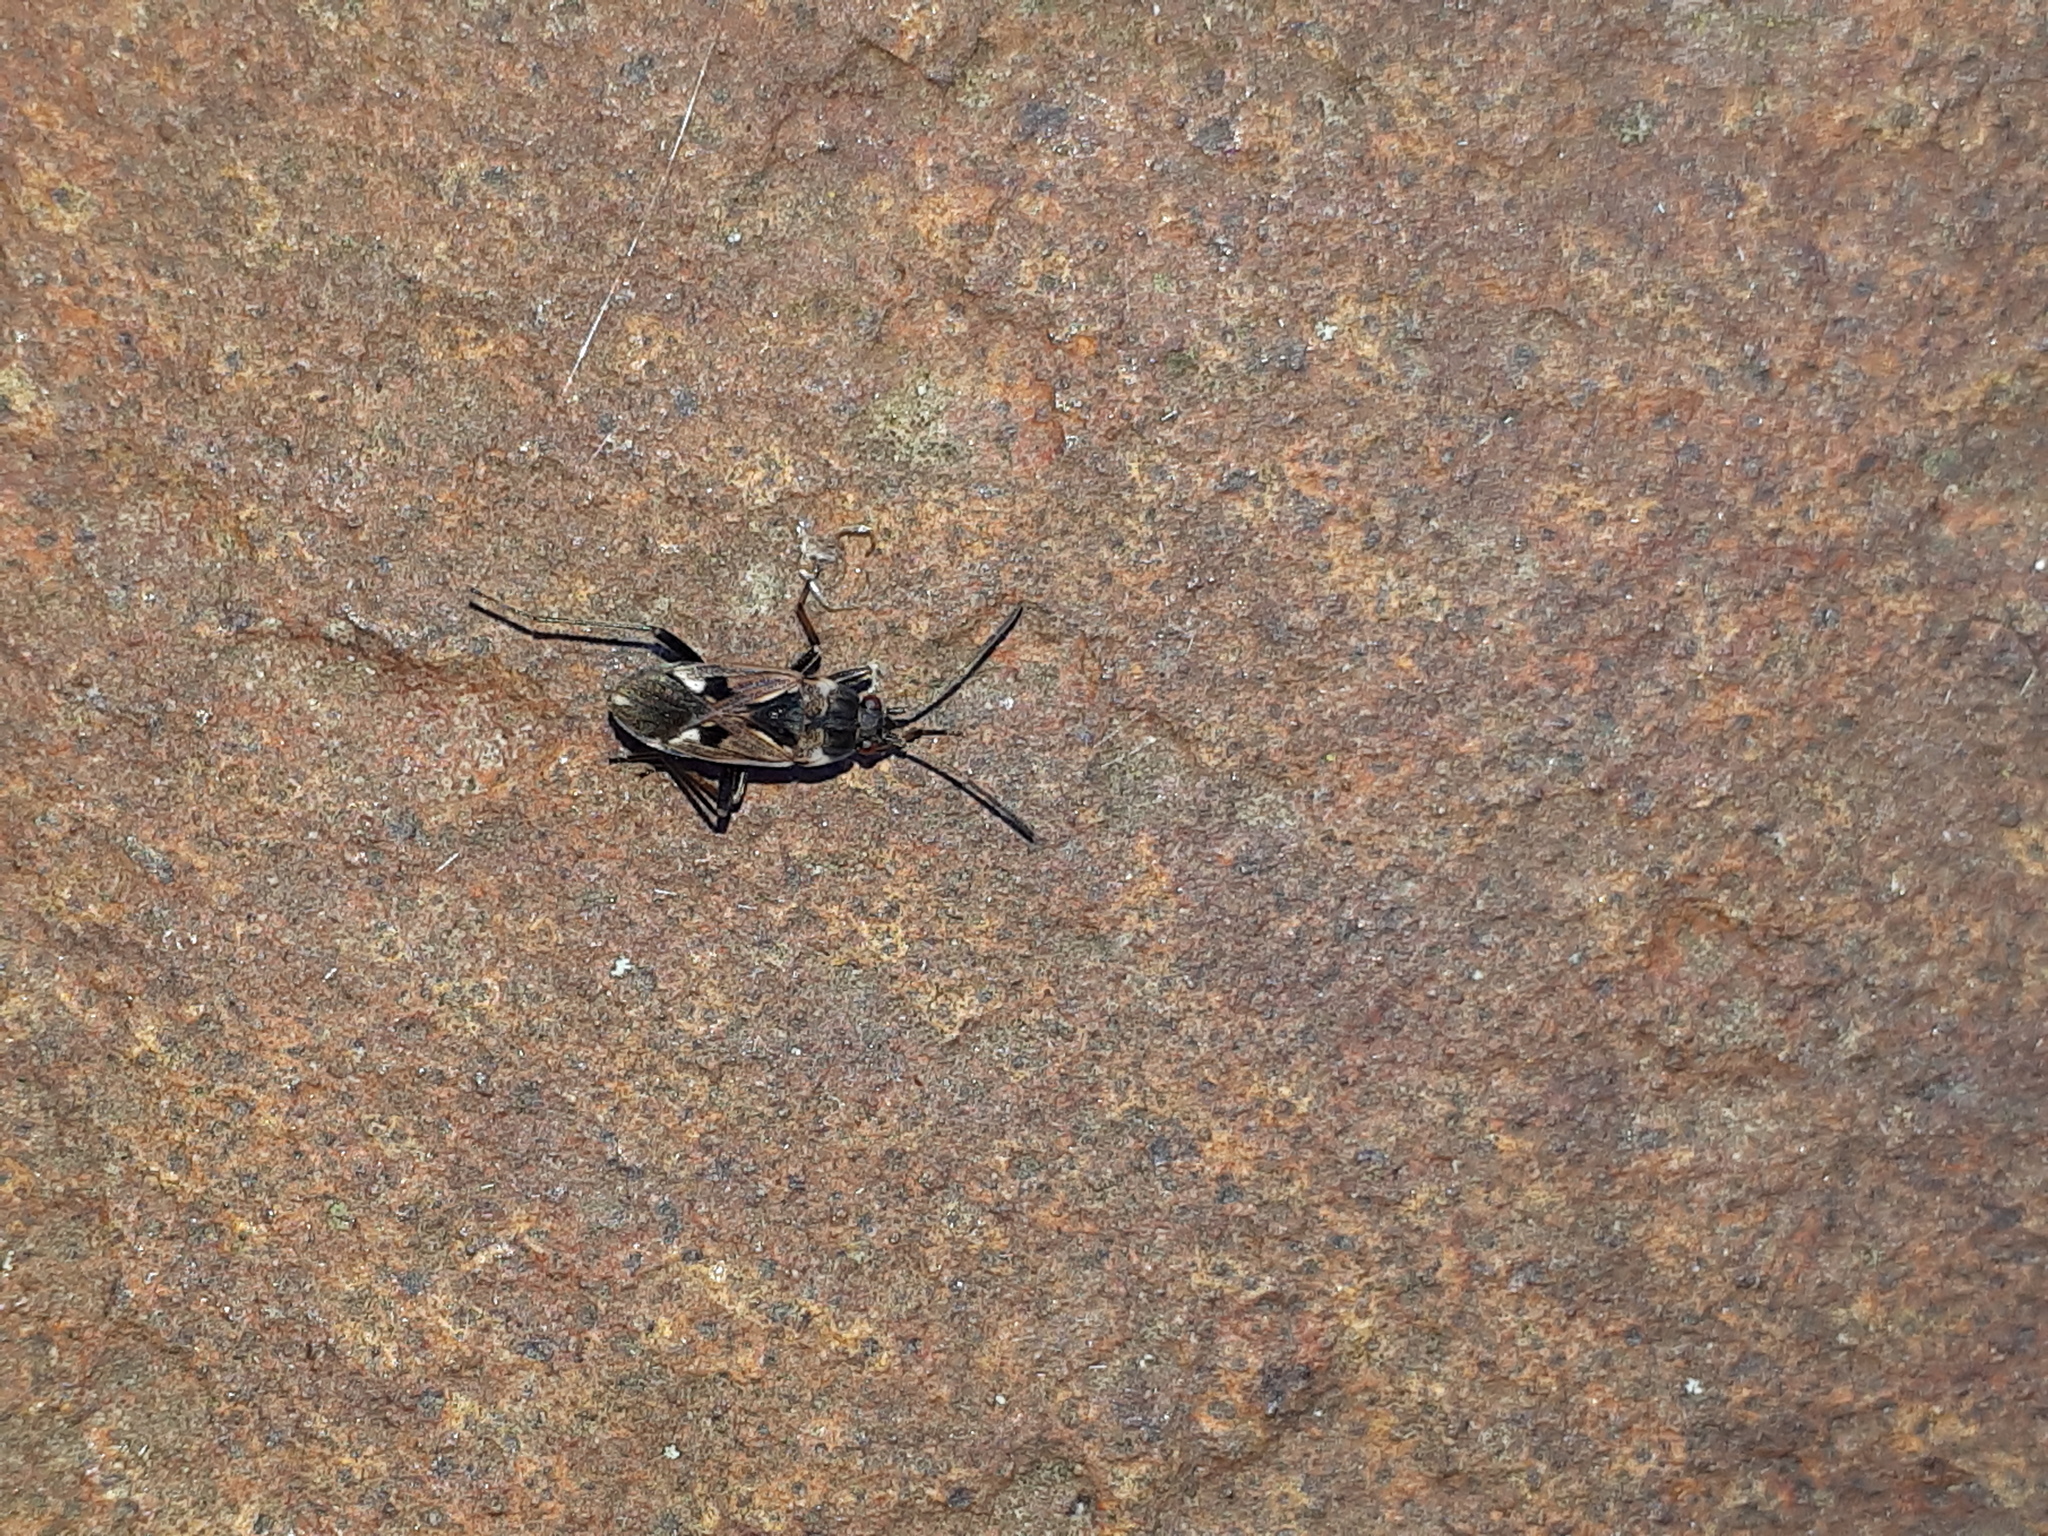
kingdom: Animalia
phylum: Arthropoda
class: Insecta
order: Hemiptera
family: Rhyparochromidae
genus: Rhyparochromus
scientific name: Rhyparochromus vulgaris
